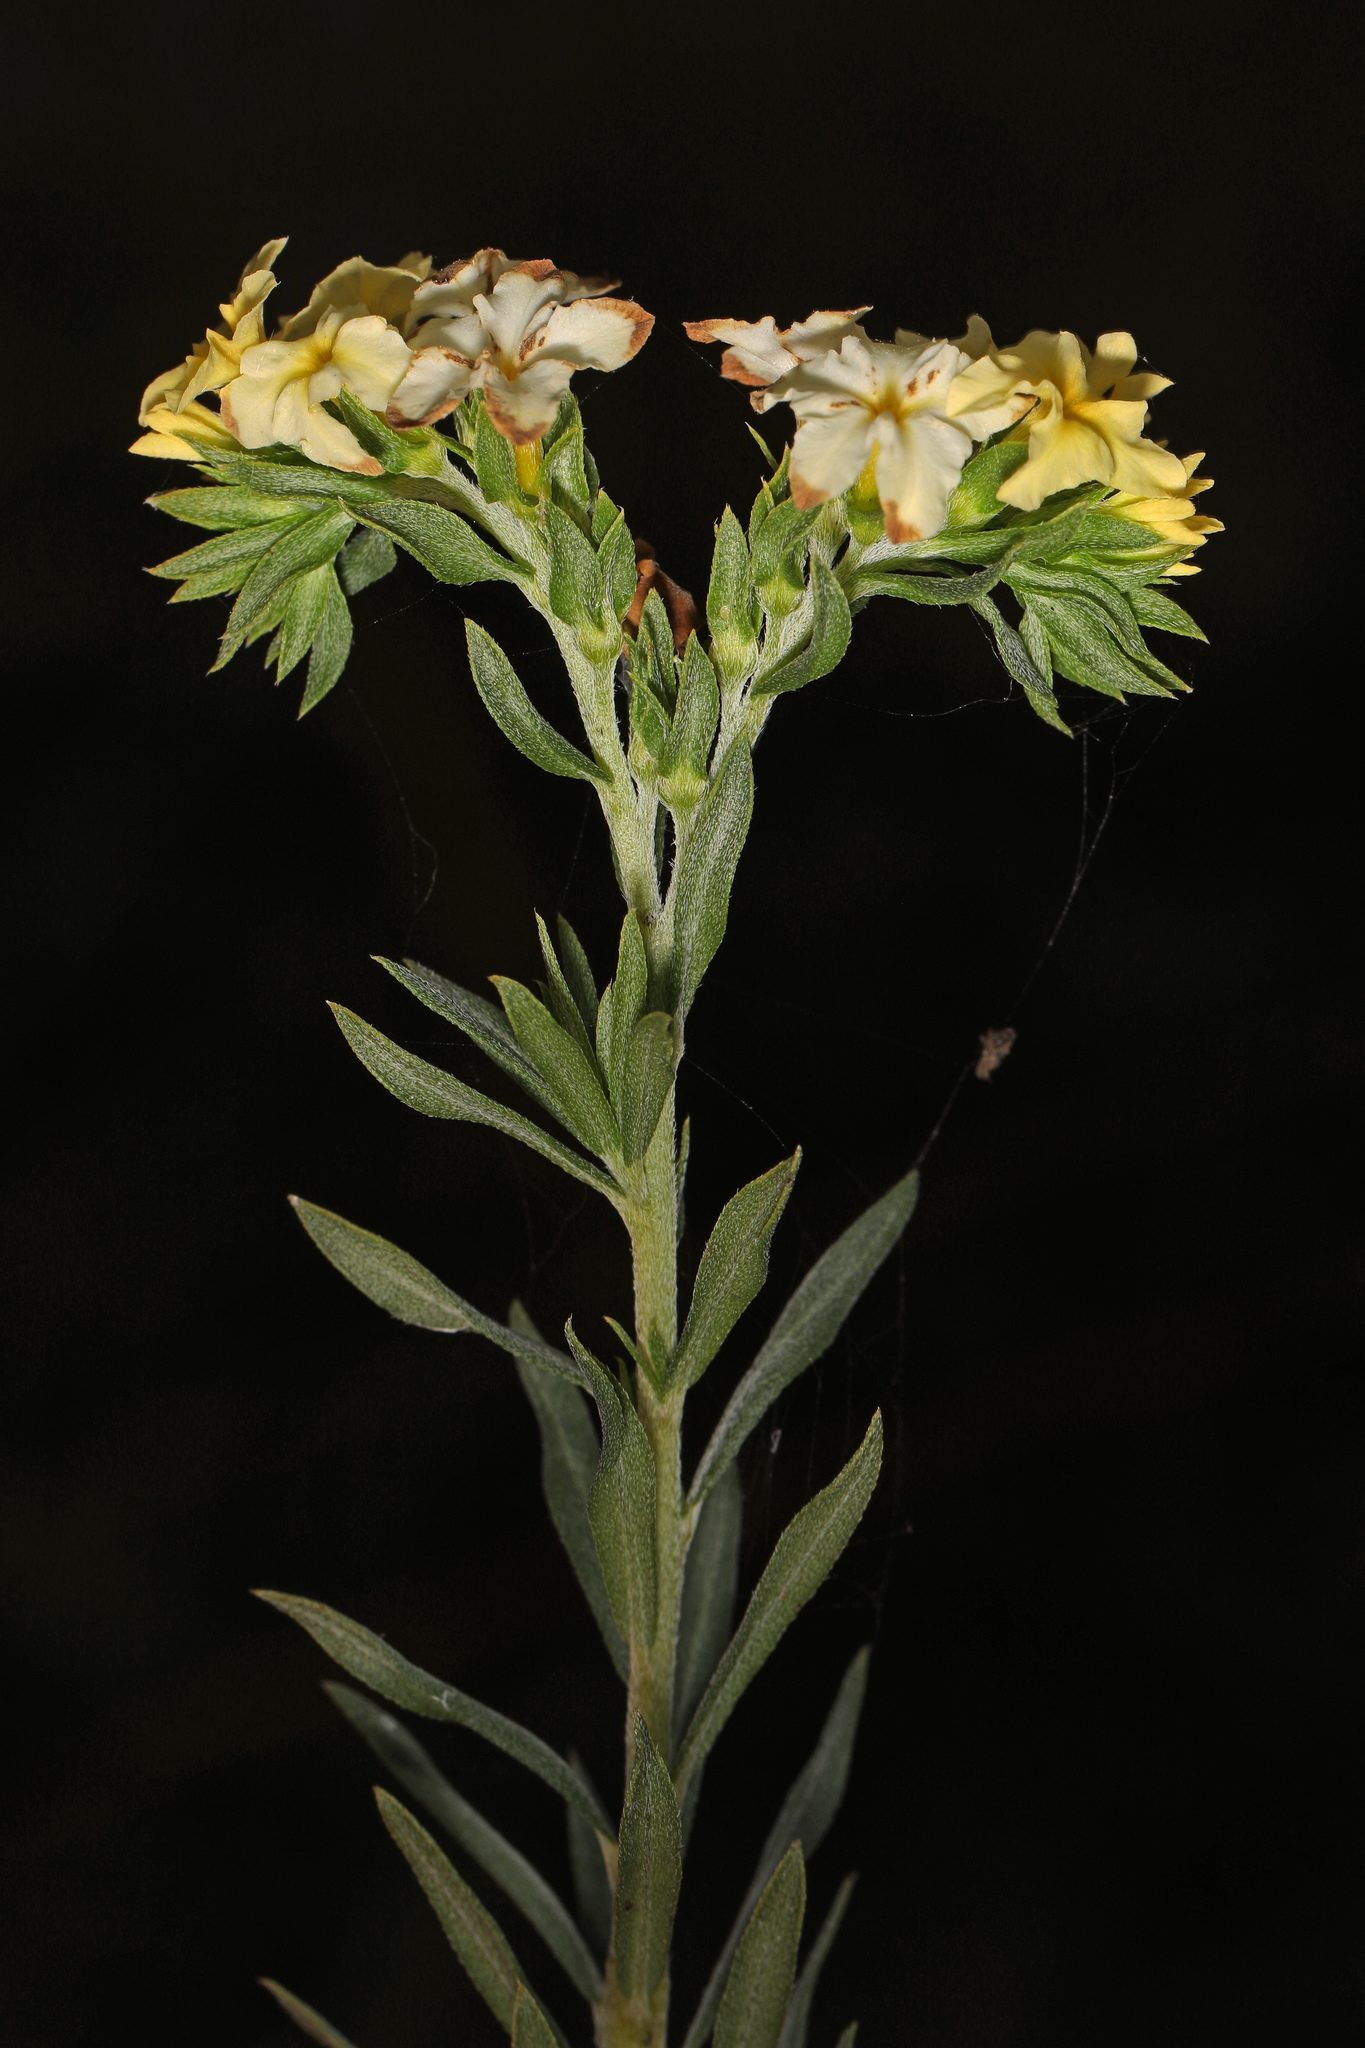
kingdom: Plantae
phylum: Tracheophyta
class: Magnoliopsida
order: Boraginales
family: Heliotropiaceae
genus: Euploca
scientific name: Euploca polyphylla
